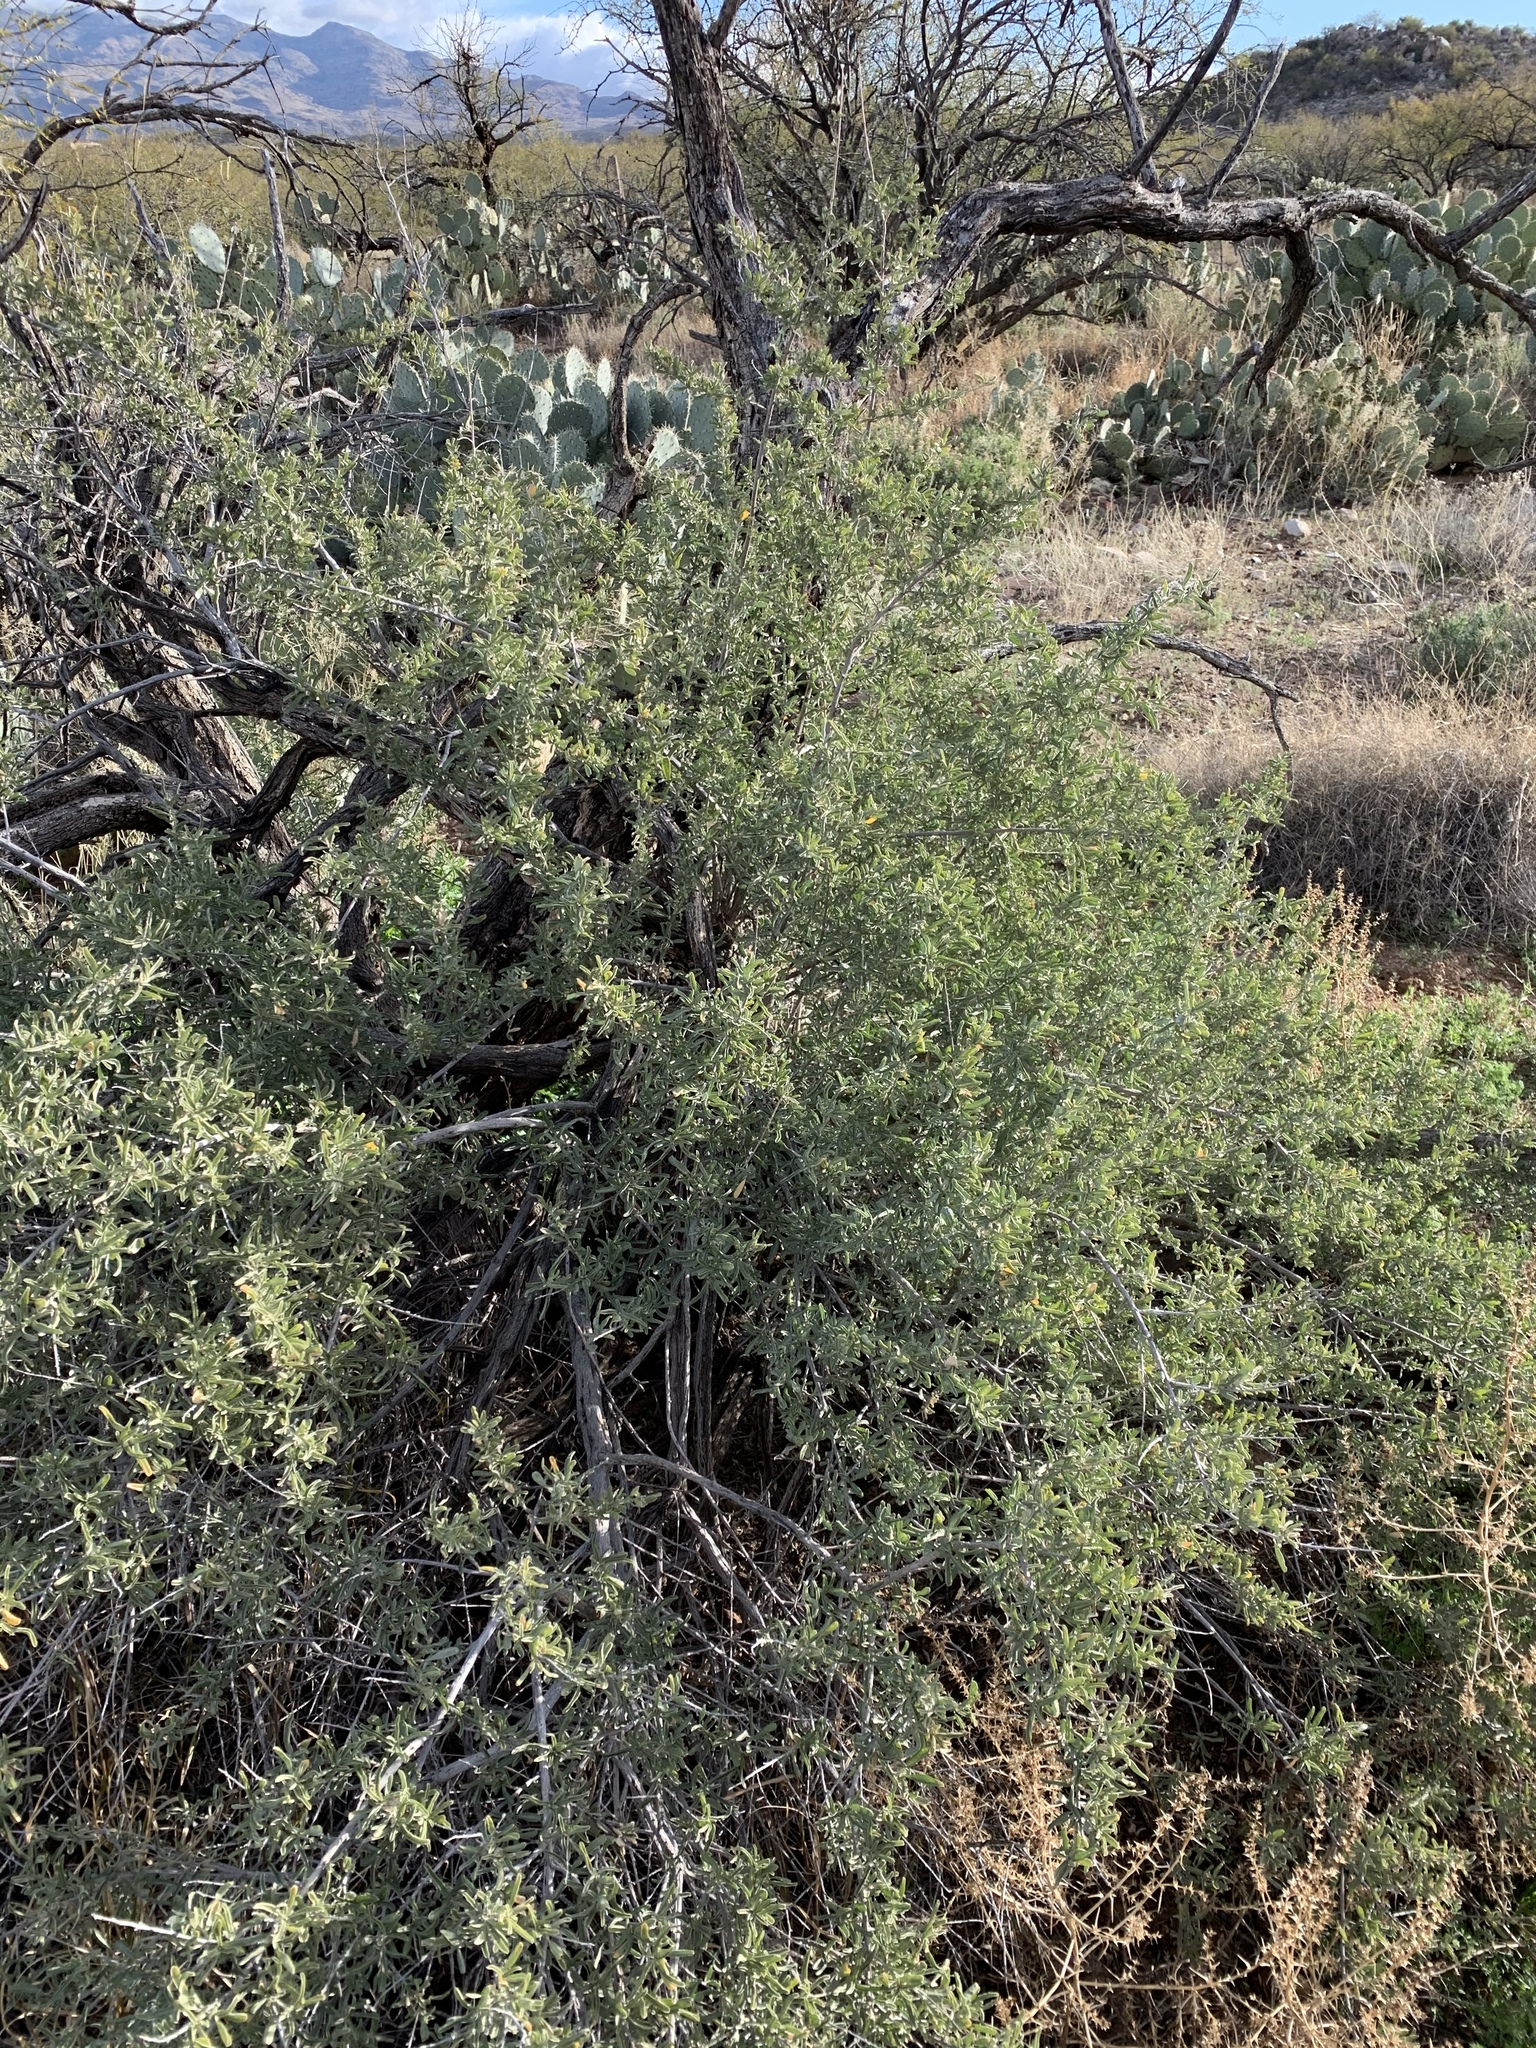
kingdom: Plantae
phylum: Tracheophyta
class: Magnoliopsida
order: Caryophyllales
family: Amaranthaceae
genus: Atriplex
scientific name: Atriplex canescens
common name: Four-wing saltbush
